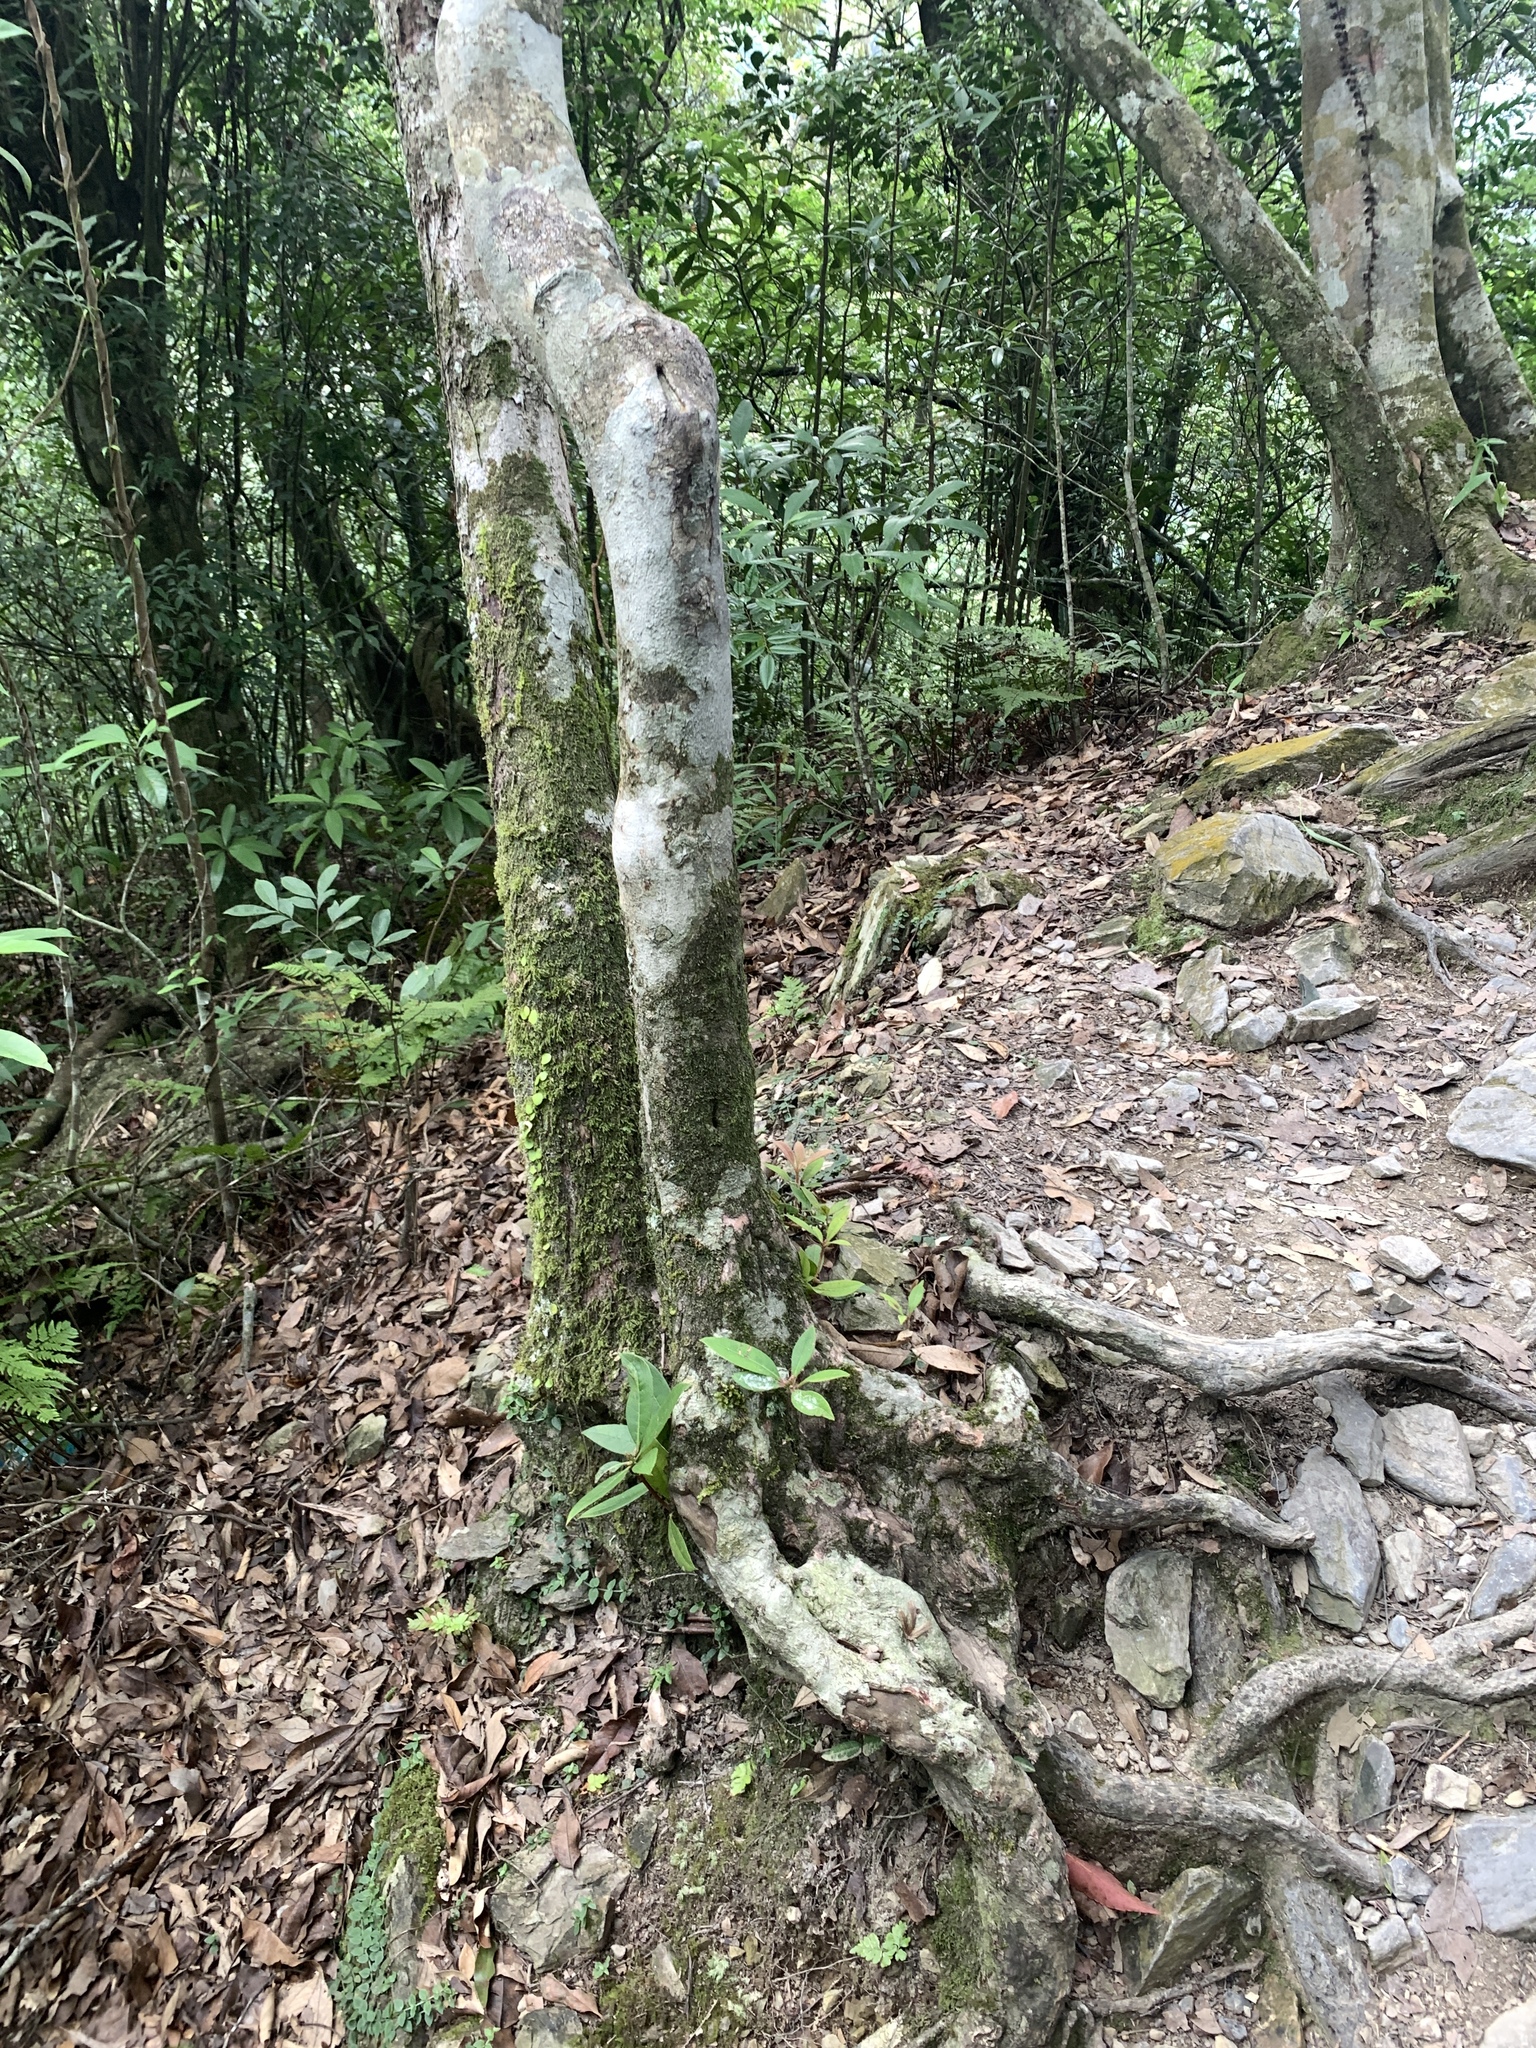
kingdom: Plantae
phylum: Tracheophyta
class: Magnoliopsida
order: Ericales
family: Ericaceae
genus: Rhododendron
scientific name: Rhododendron latoucheae
